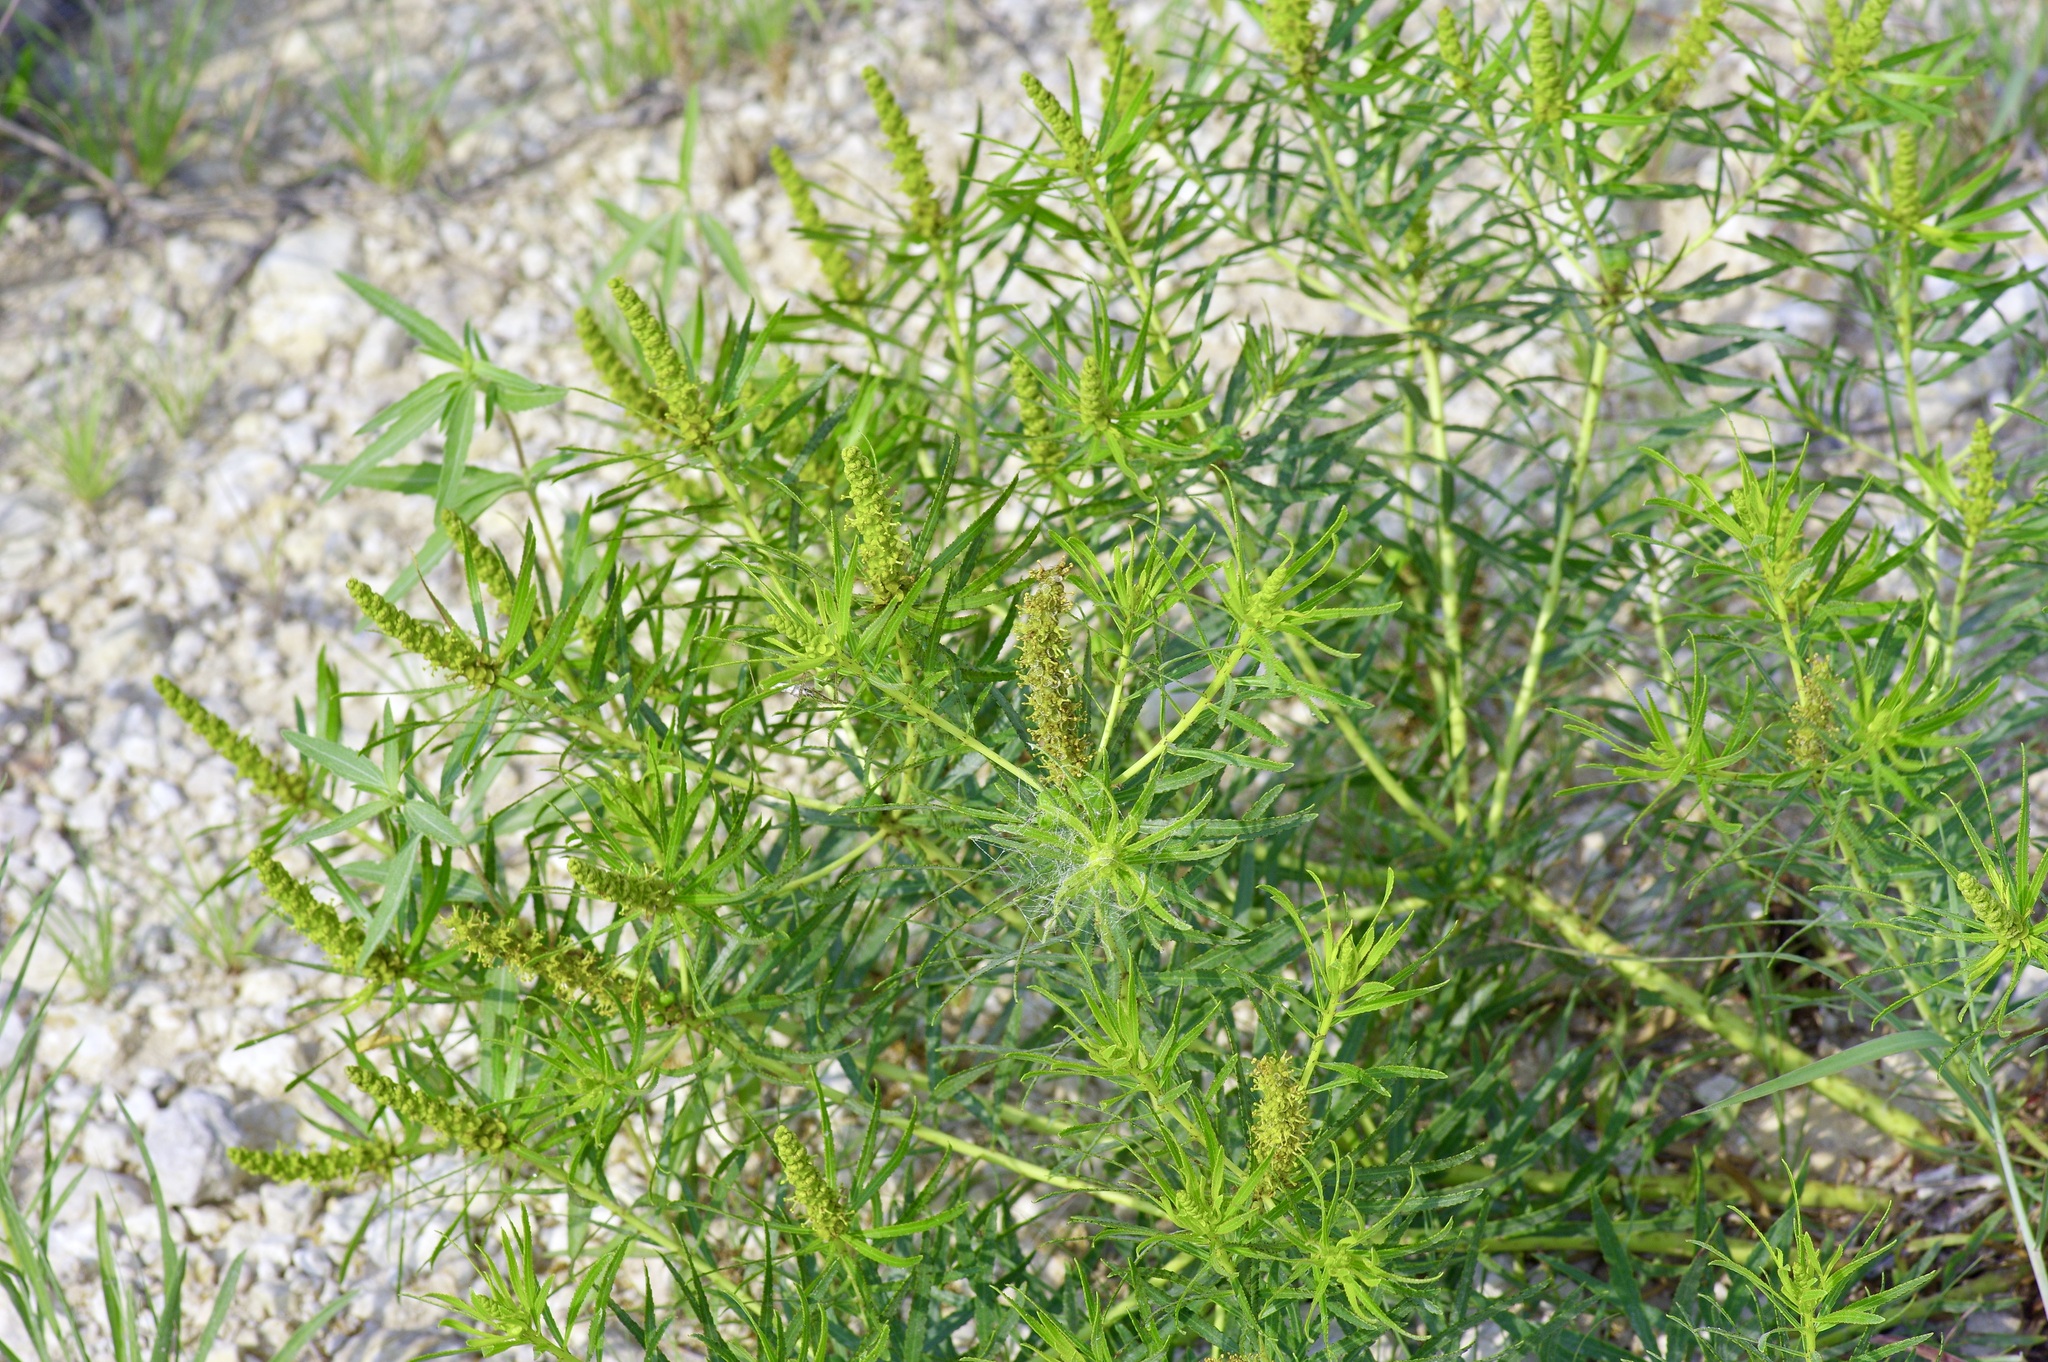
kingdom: Plantae
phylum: Tracheophyta
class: Magnoliopsida
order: Malpighiales
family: Euphorbiaceae
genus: Stillingia
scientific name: Stillingia texana
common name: Texas stillingia
